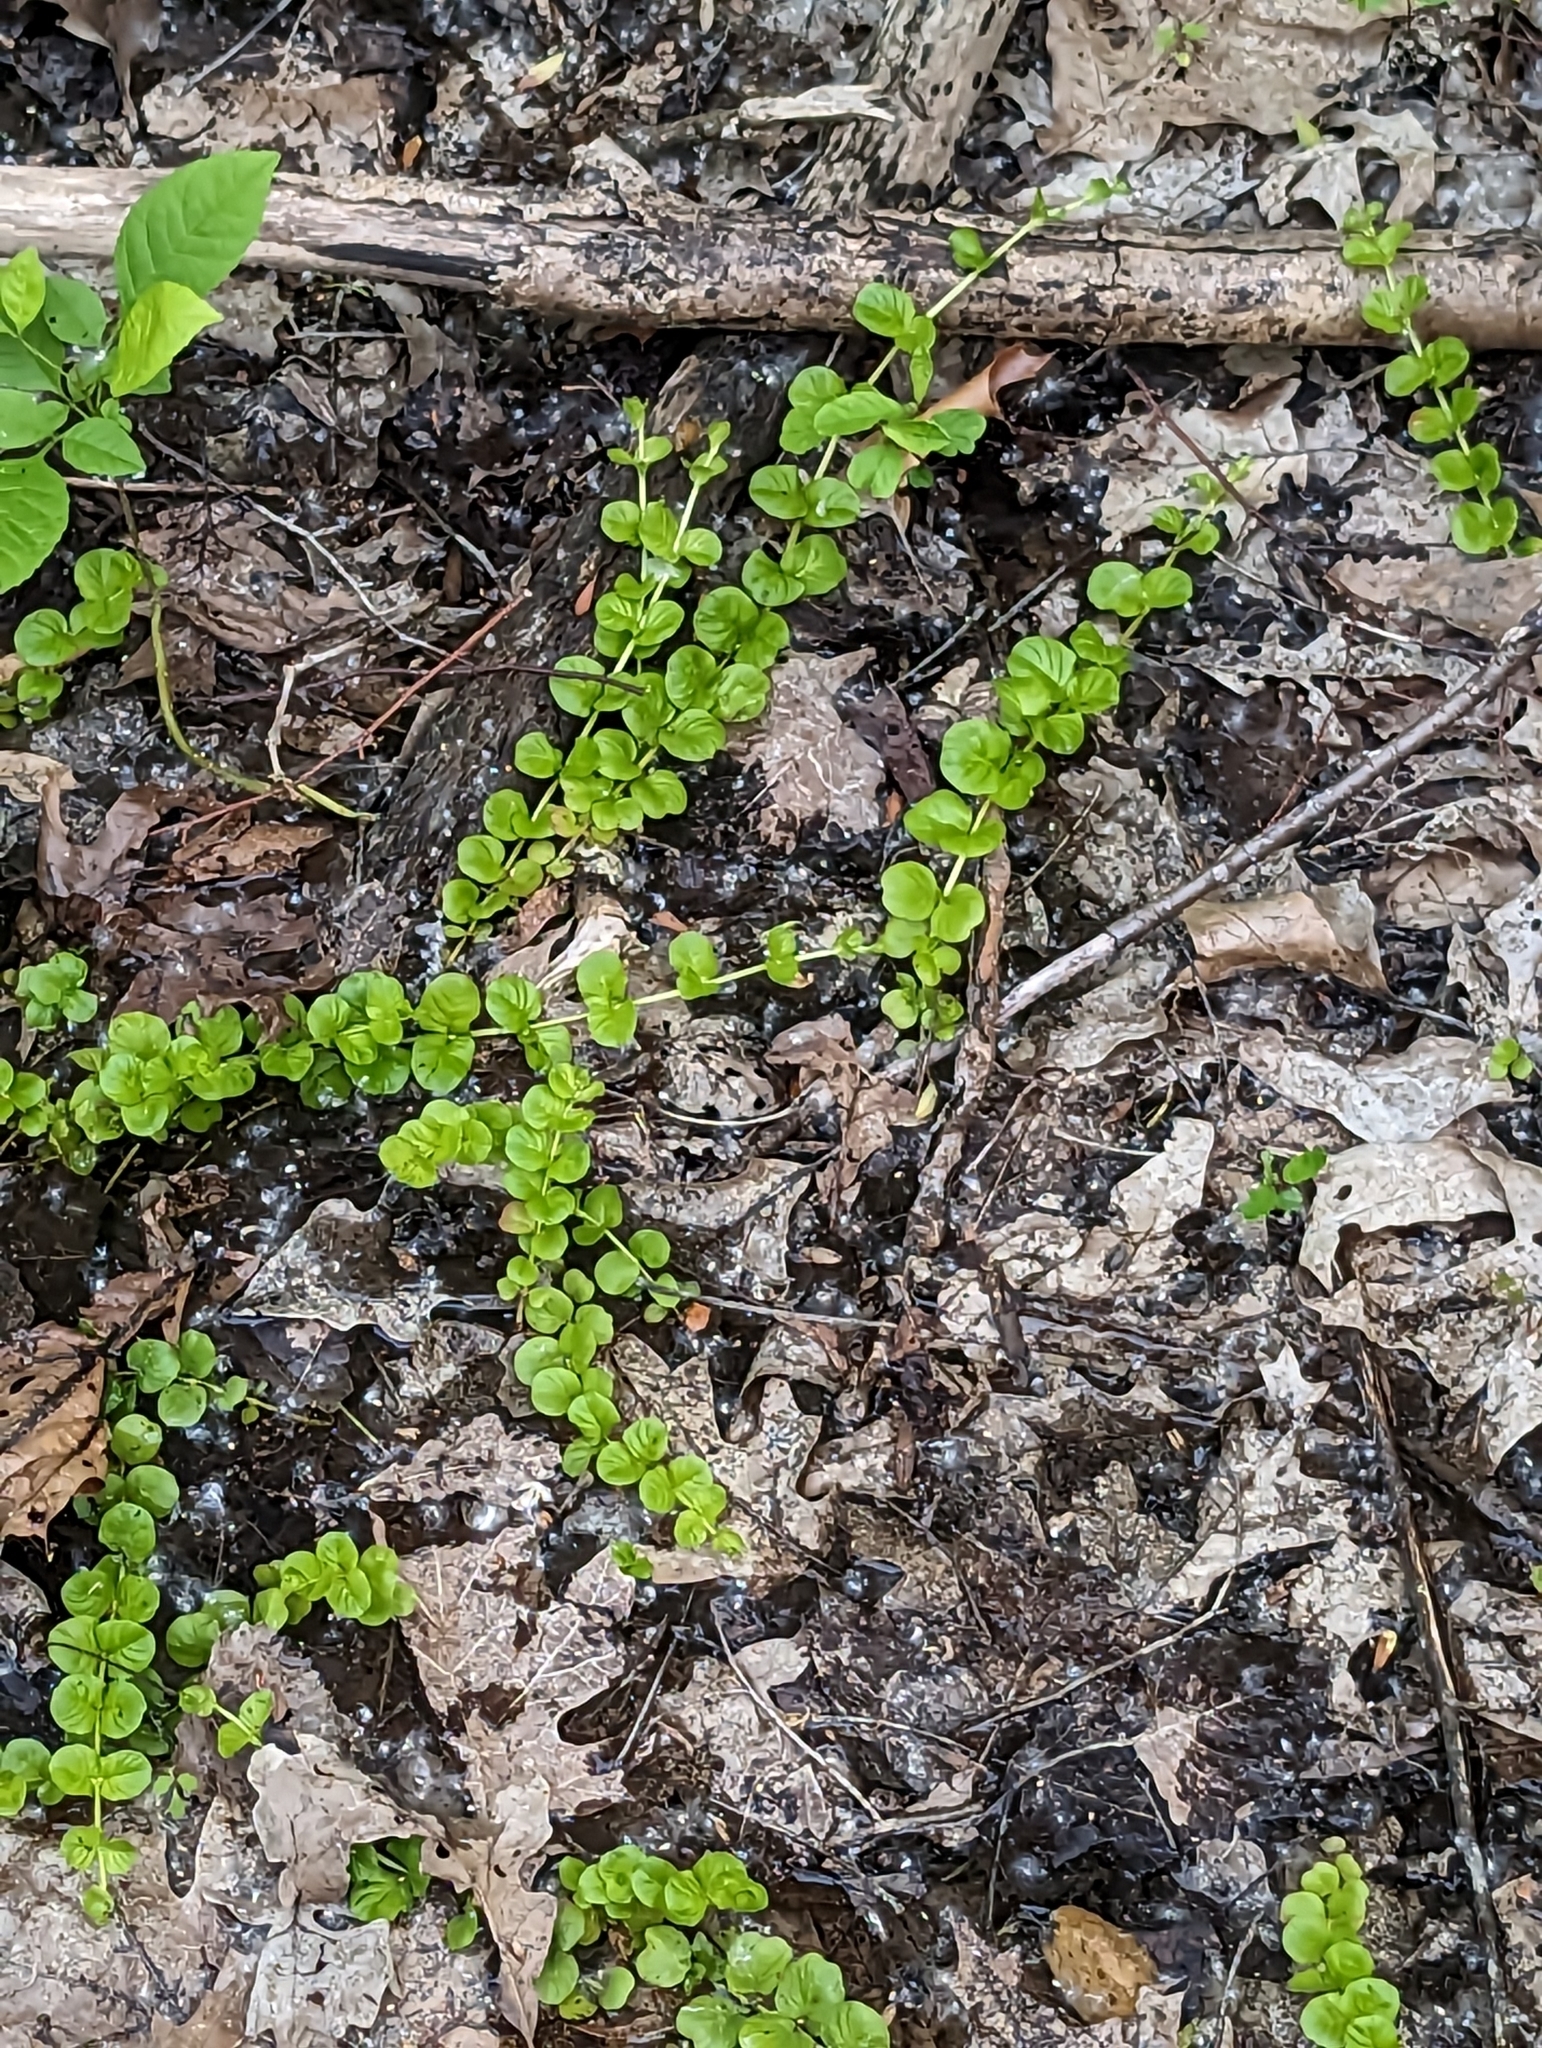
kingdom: Plantae
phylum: Tracheophyta
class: Magnoliopsida
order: Ericales
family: Primulaceae
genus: Lysimachia
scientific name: Lysimachia nummularia
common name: Moneywort
